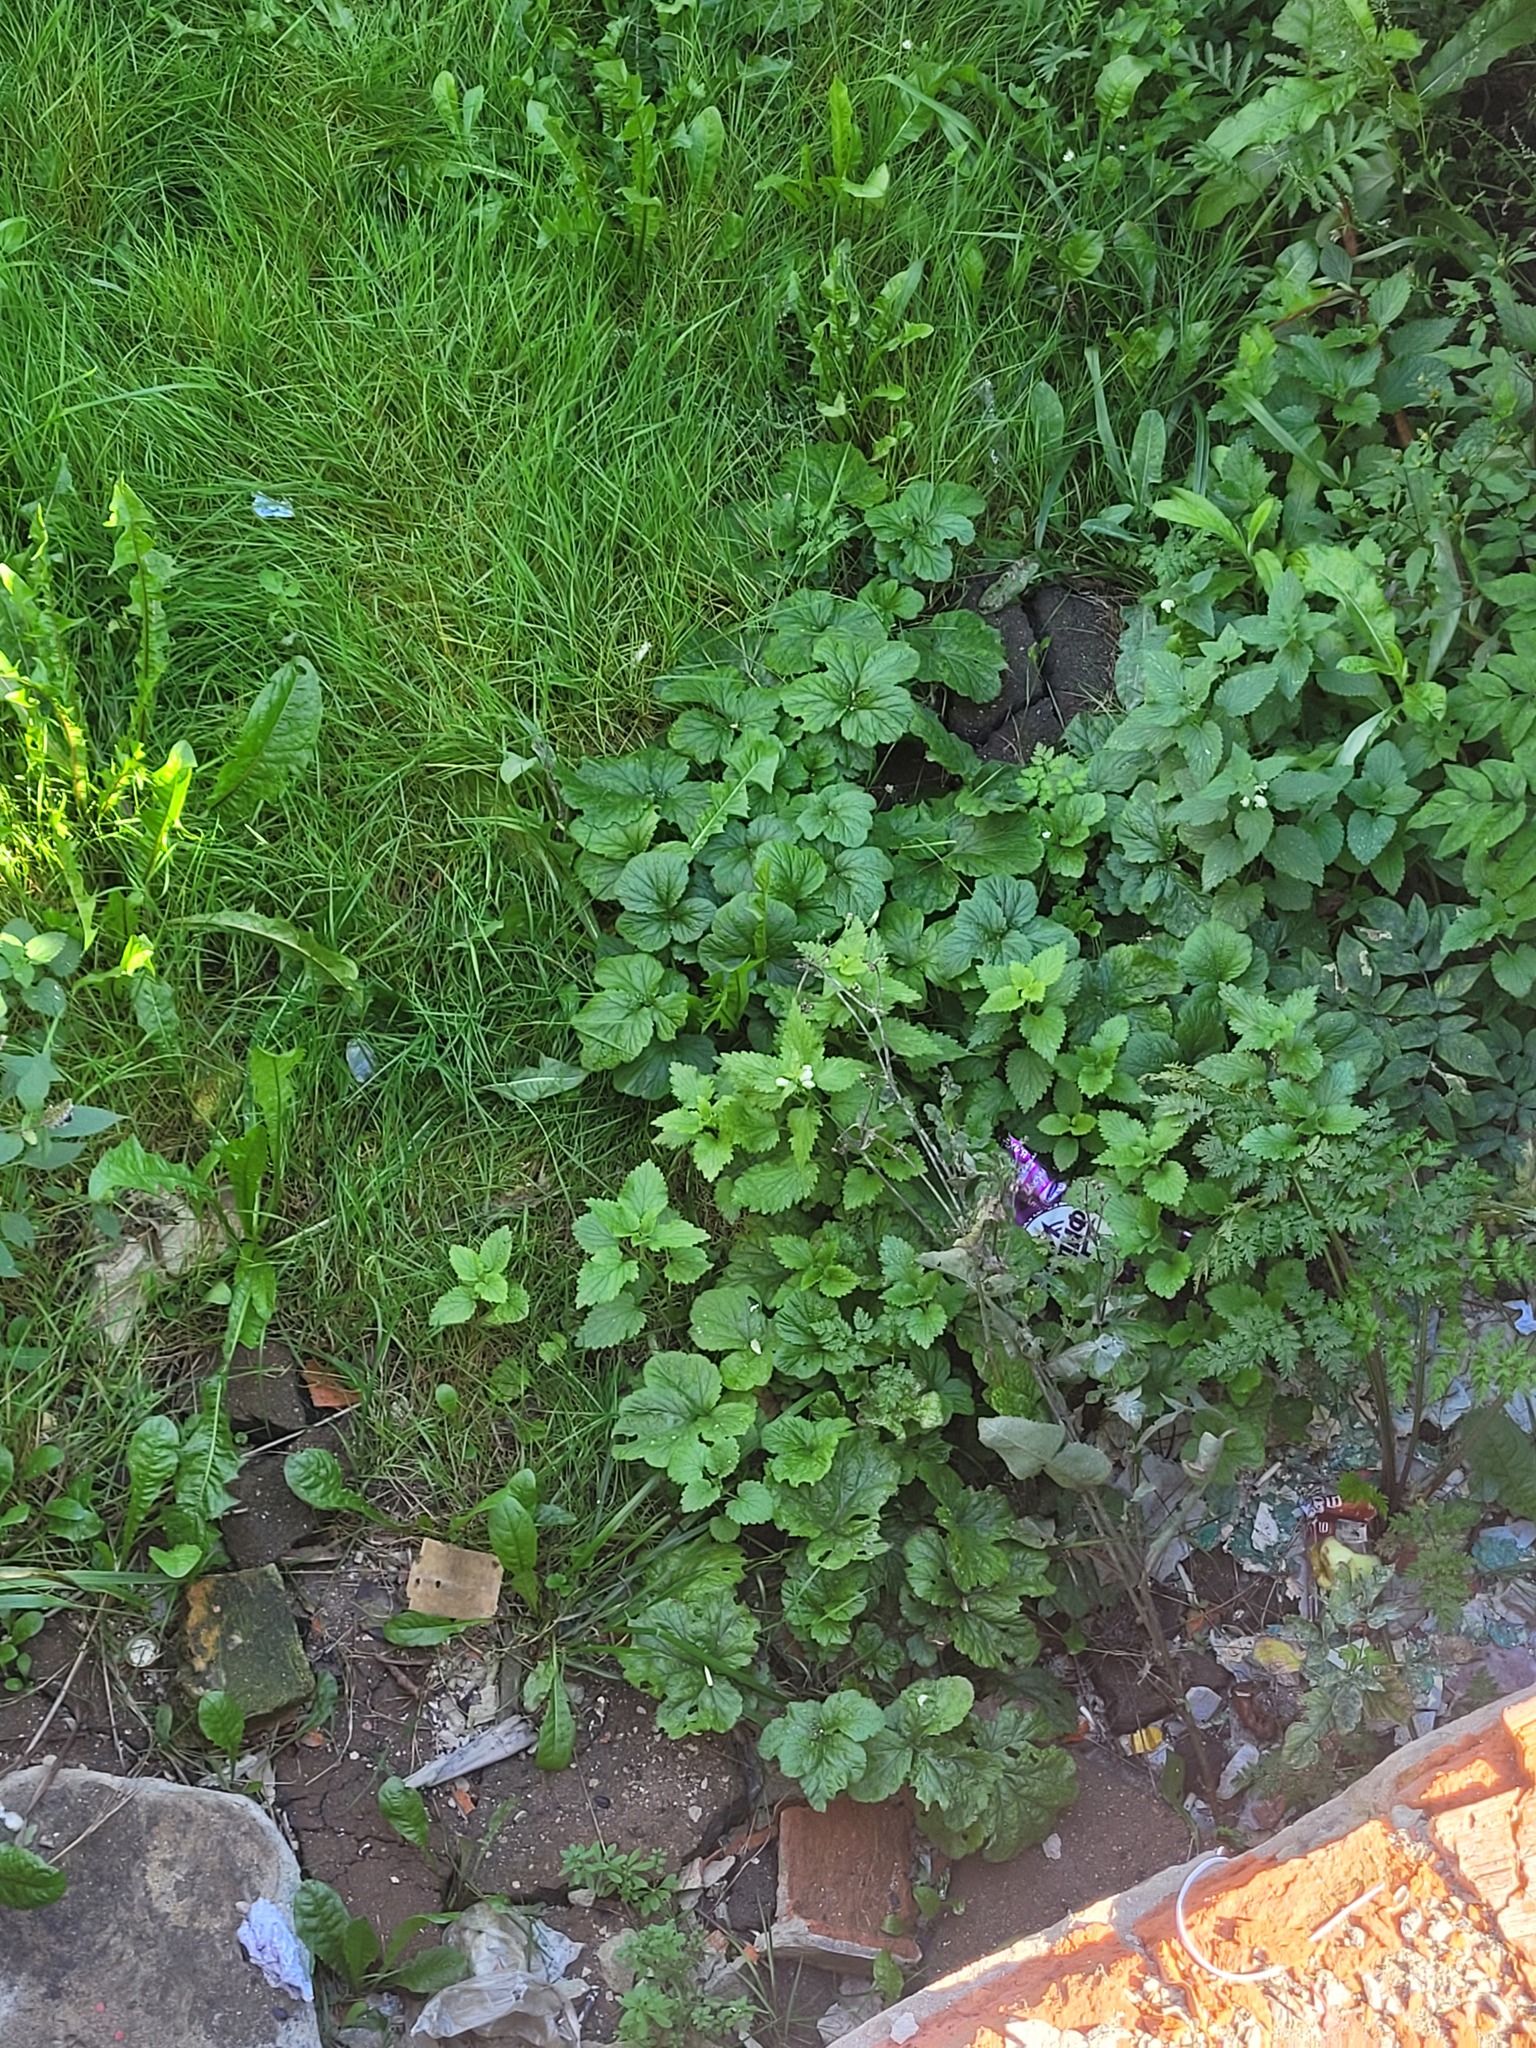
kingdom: Plantae
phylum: Tracheophyta
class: Magnoliopsida
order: Lamiales
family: Lamiaceae
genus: Lamium
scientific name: Lamium album
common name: White dead-nettle
